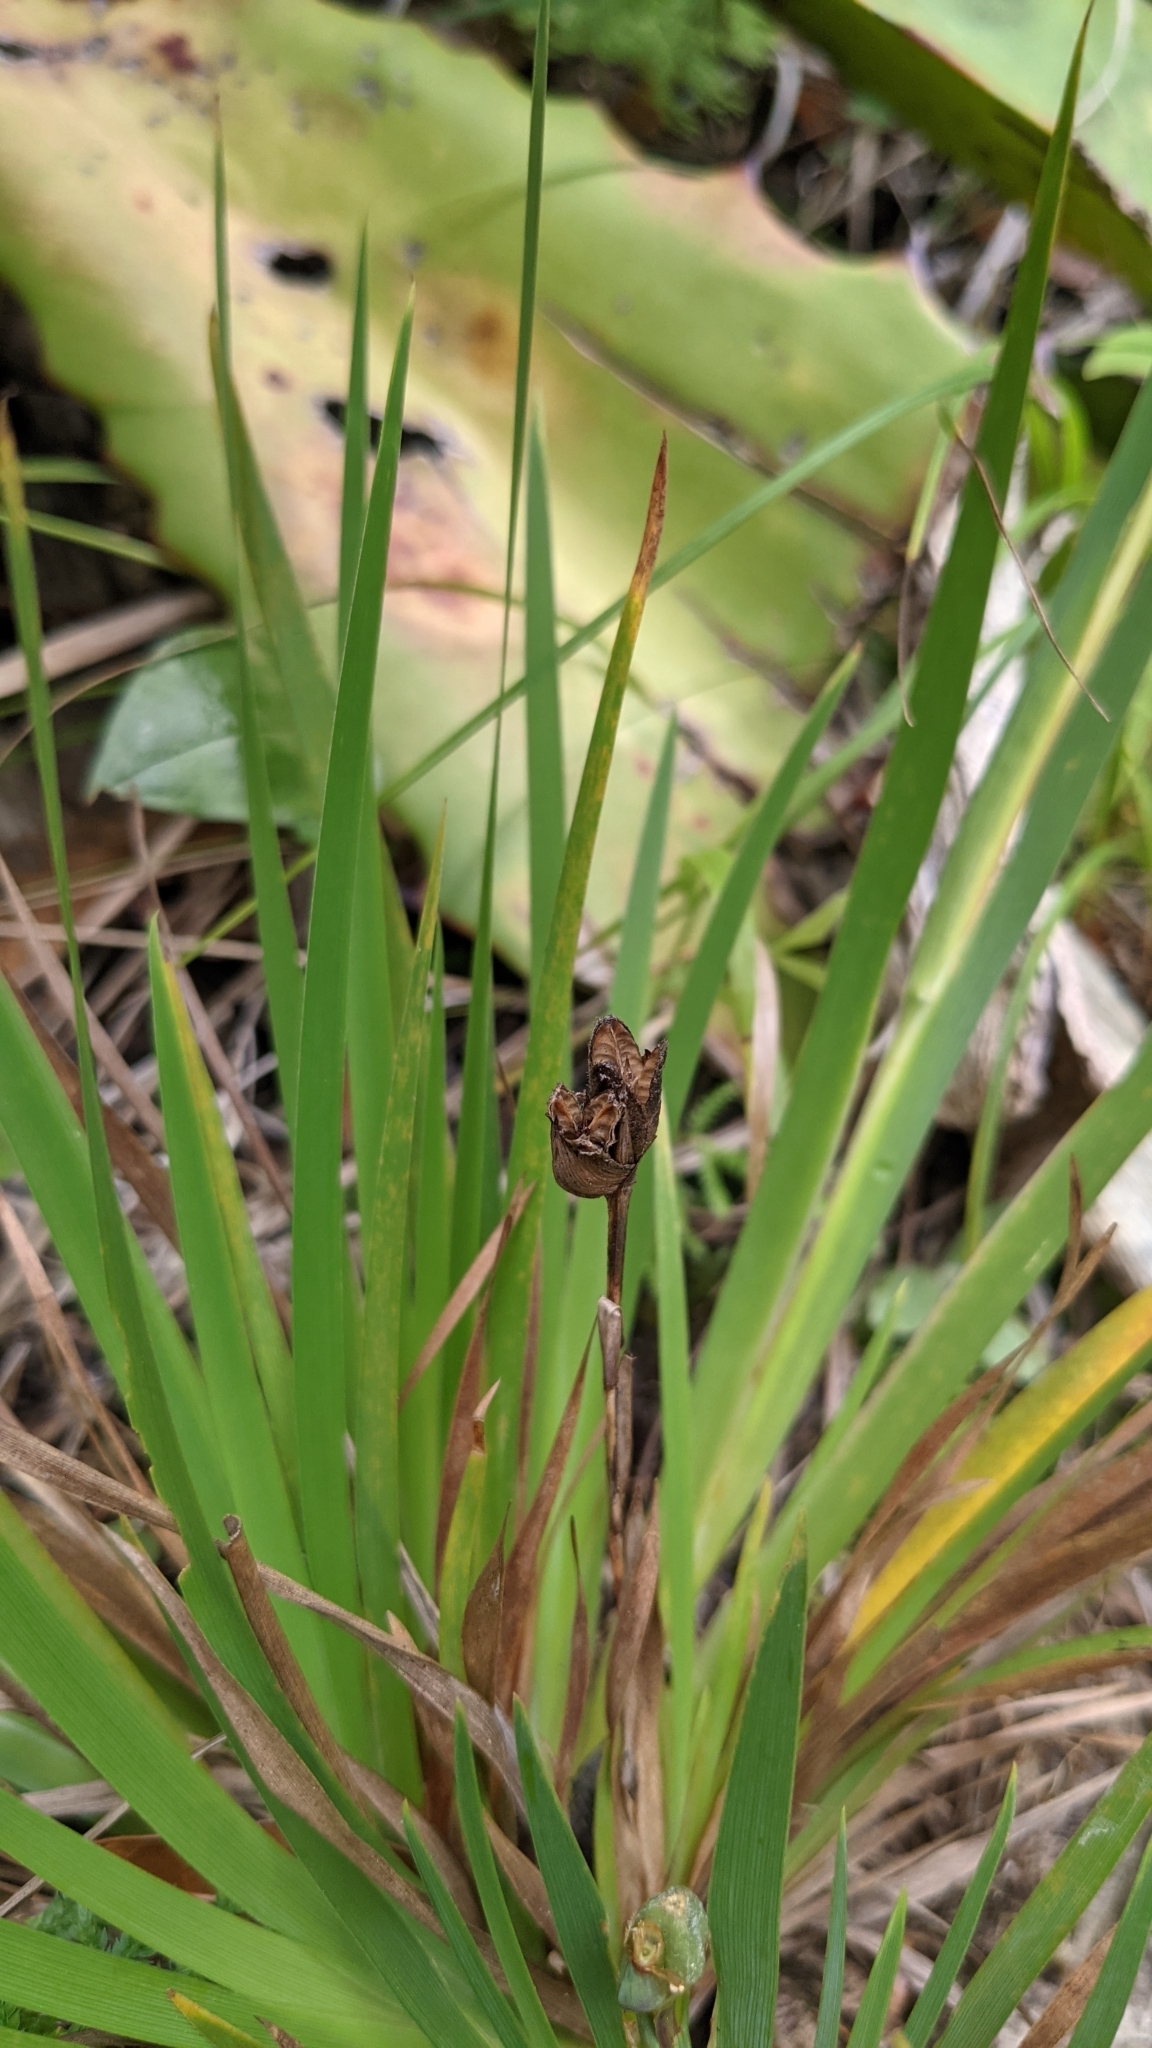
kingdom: Plantae
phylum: Tracheophyta
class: Liliopsida
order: Asparagales
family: Iridaceae
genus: Orthrosanthus
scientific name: Orthrosanthus monadelphus
